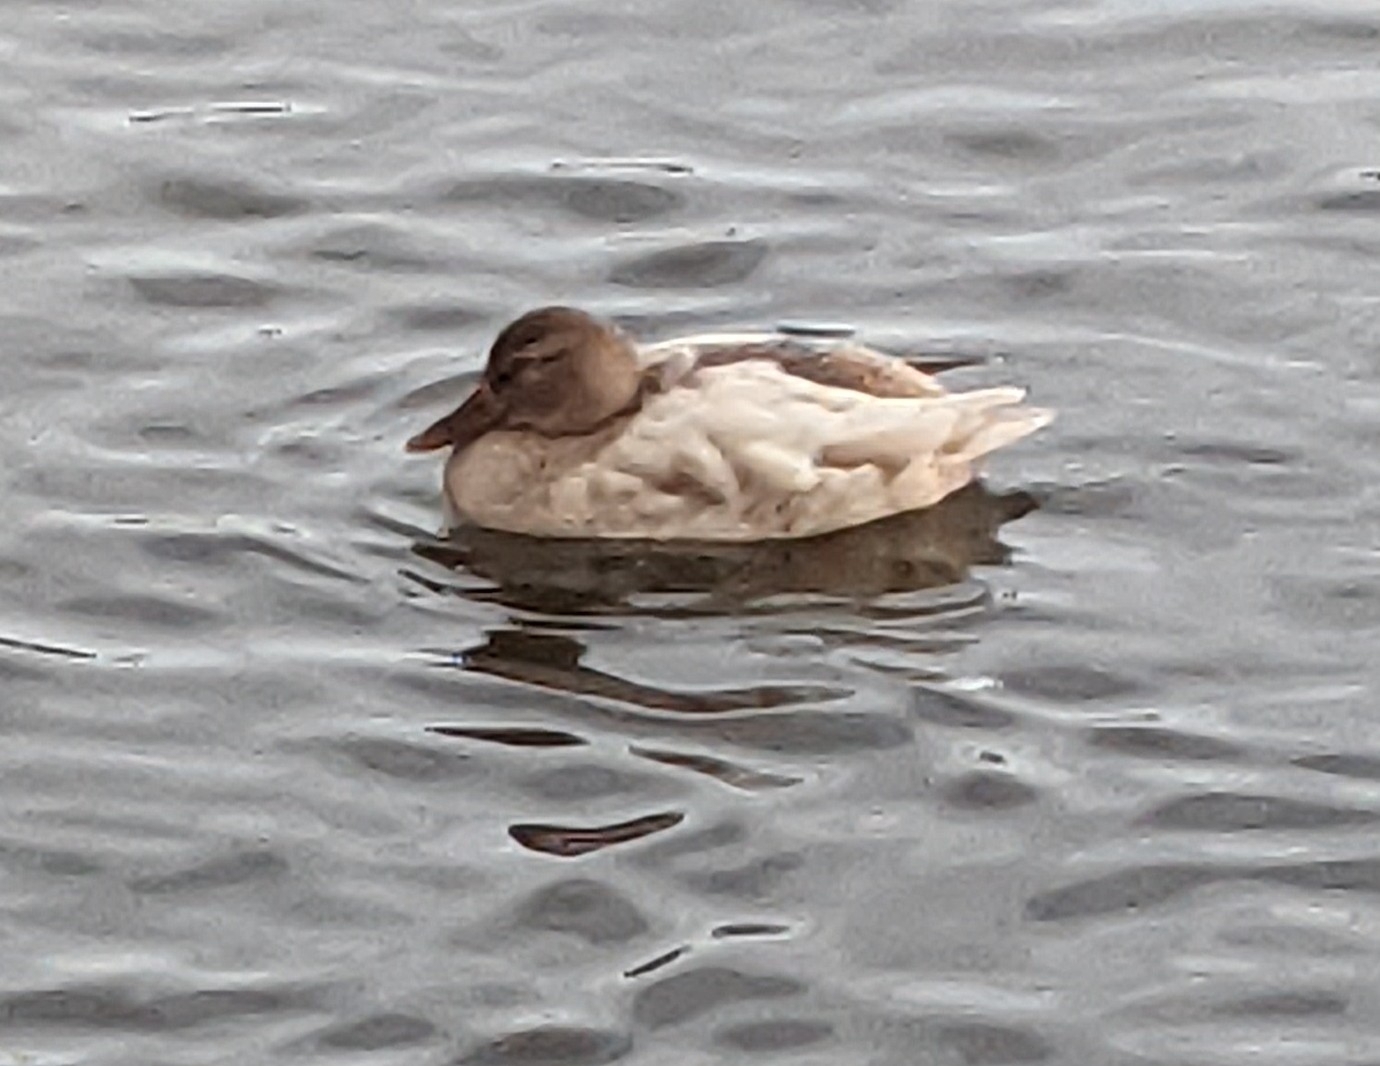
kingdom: Animalia
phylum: Chordata
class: Aves
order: Anseriformes
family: Anatidae
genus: Anas
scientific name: Anas platyrhynchos
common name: Mallard
